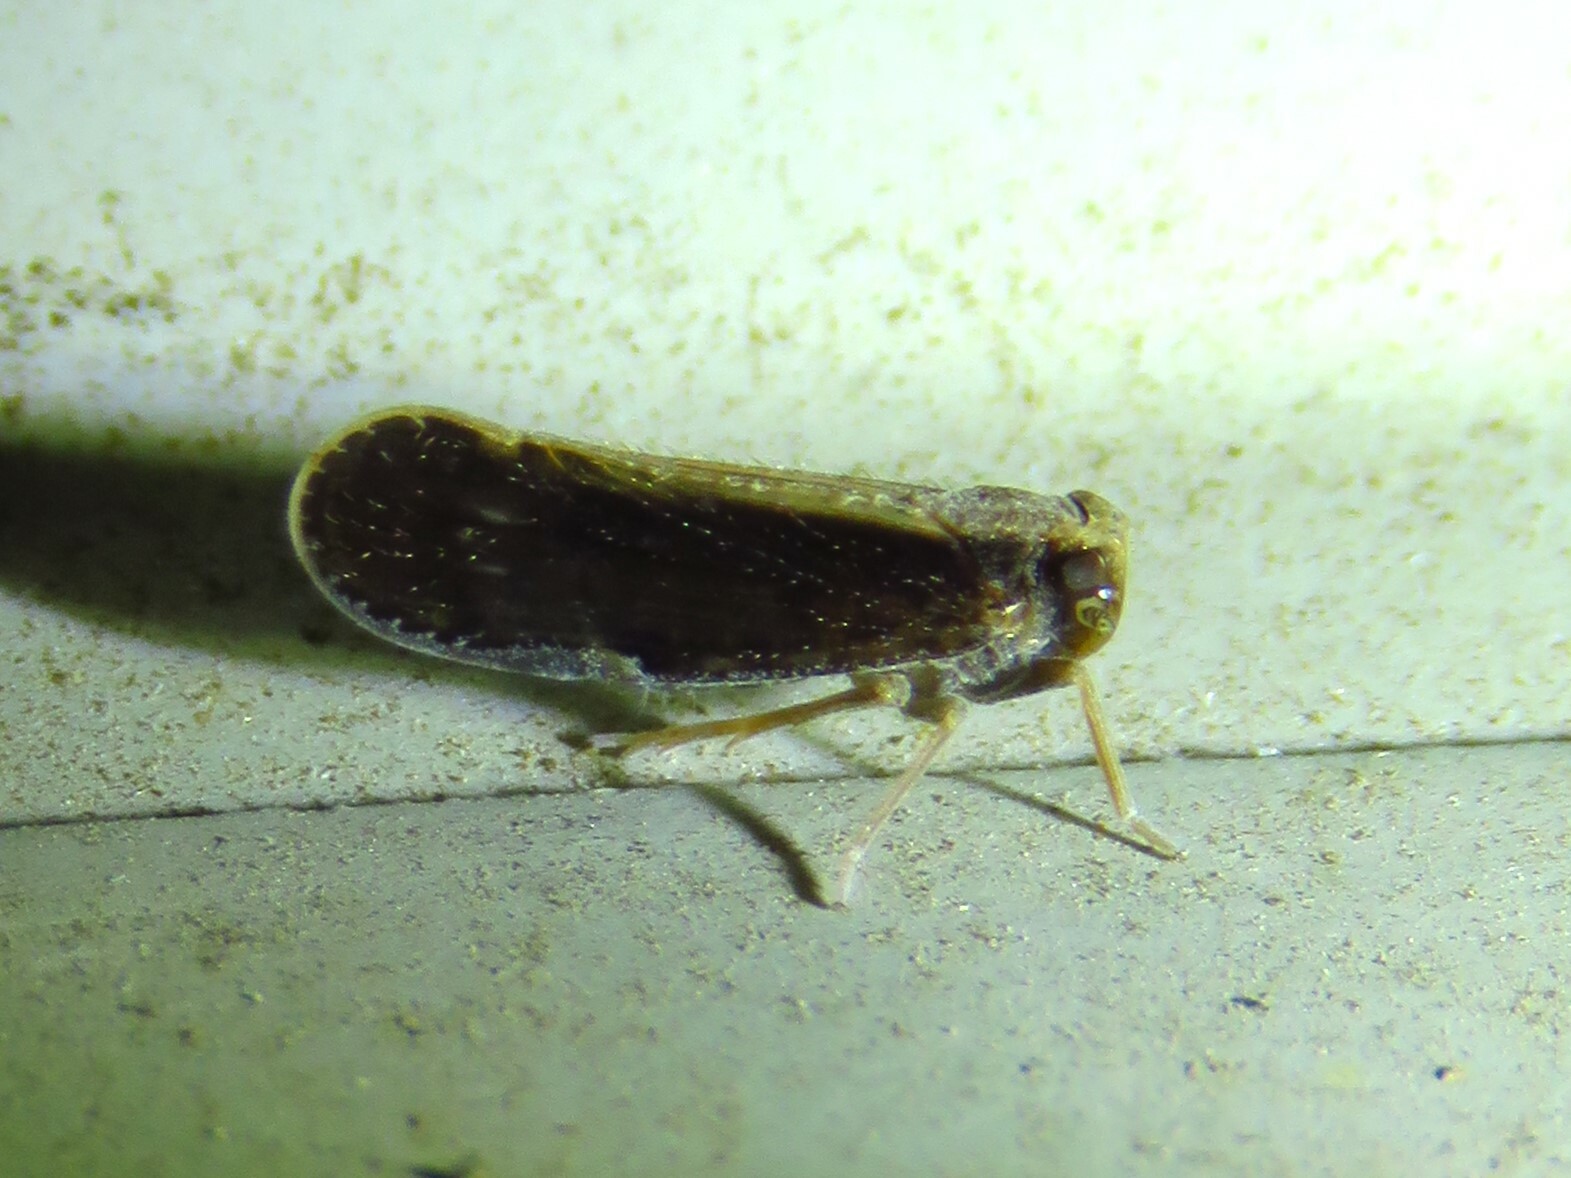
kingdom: Animalia
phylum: Arthropoda
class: Insecta
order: Hemiptera
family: Cixiidae
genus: Pintalia
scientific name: Pintalia delicata
